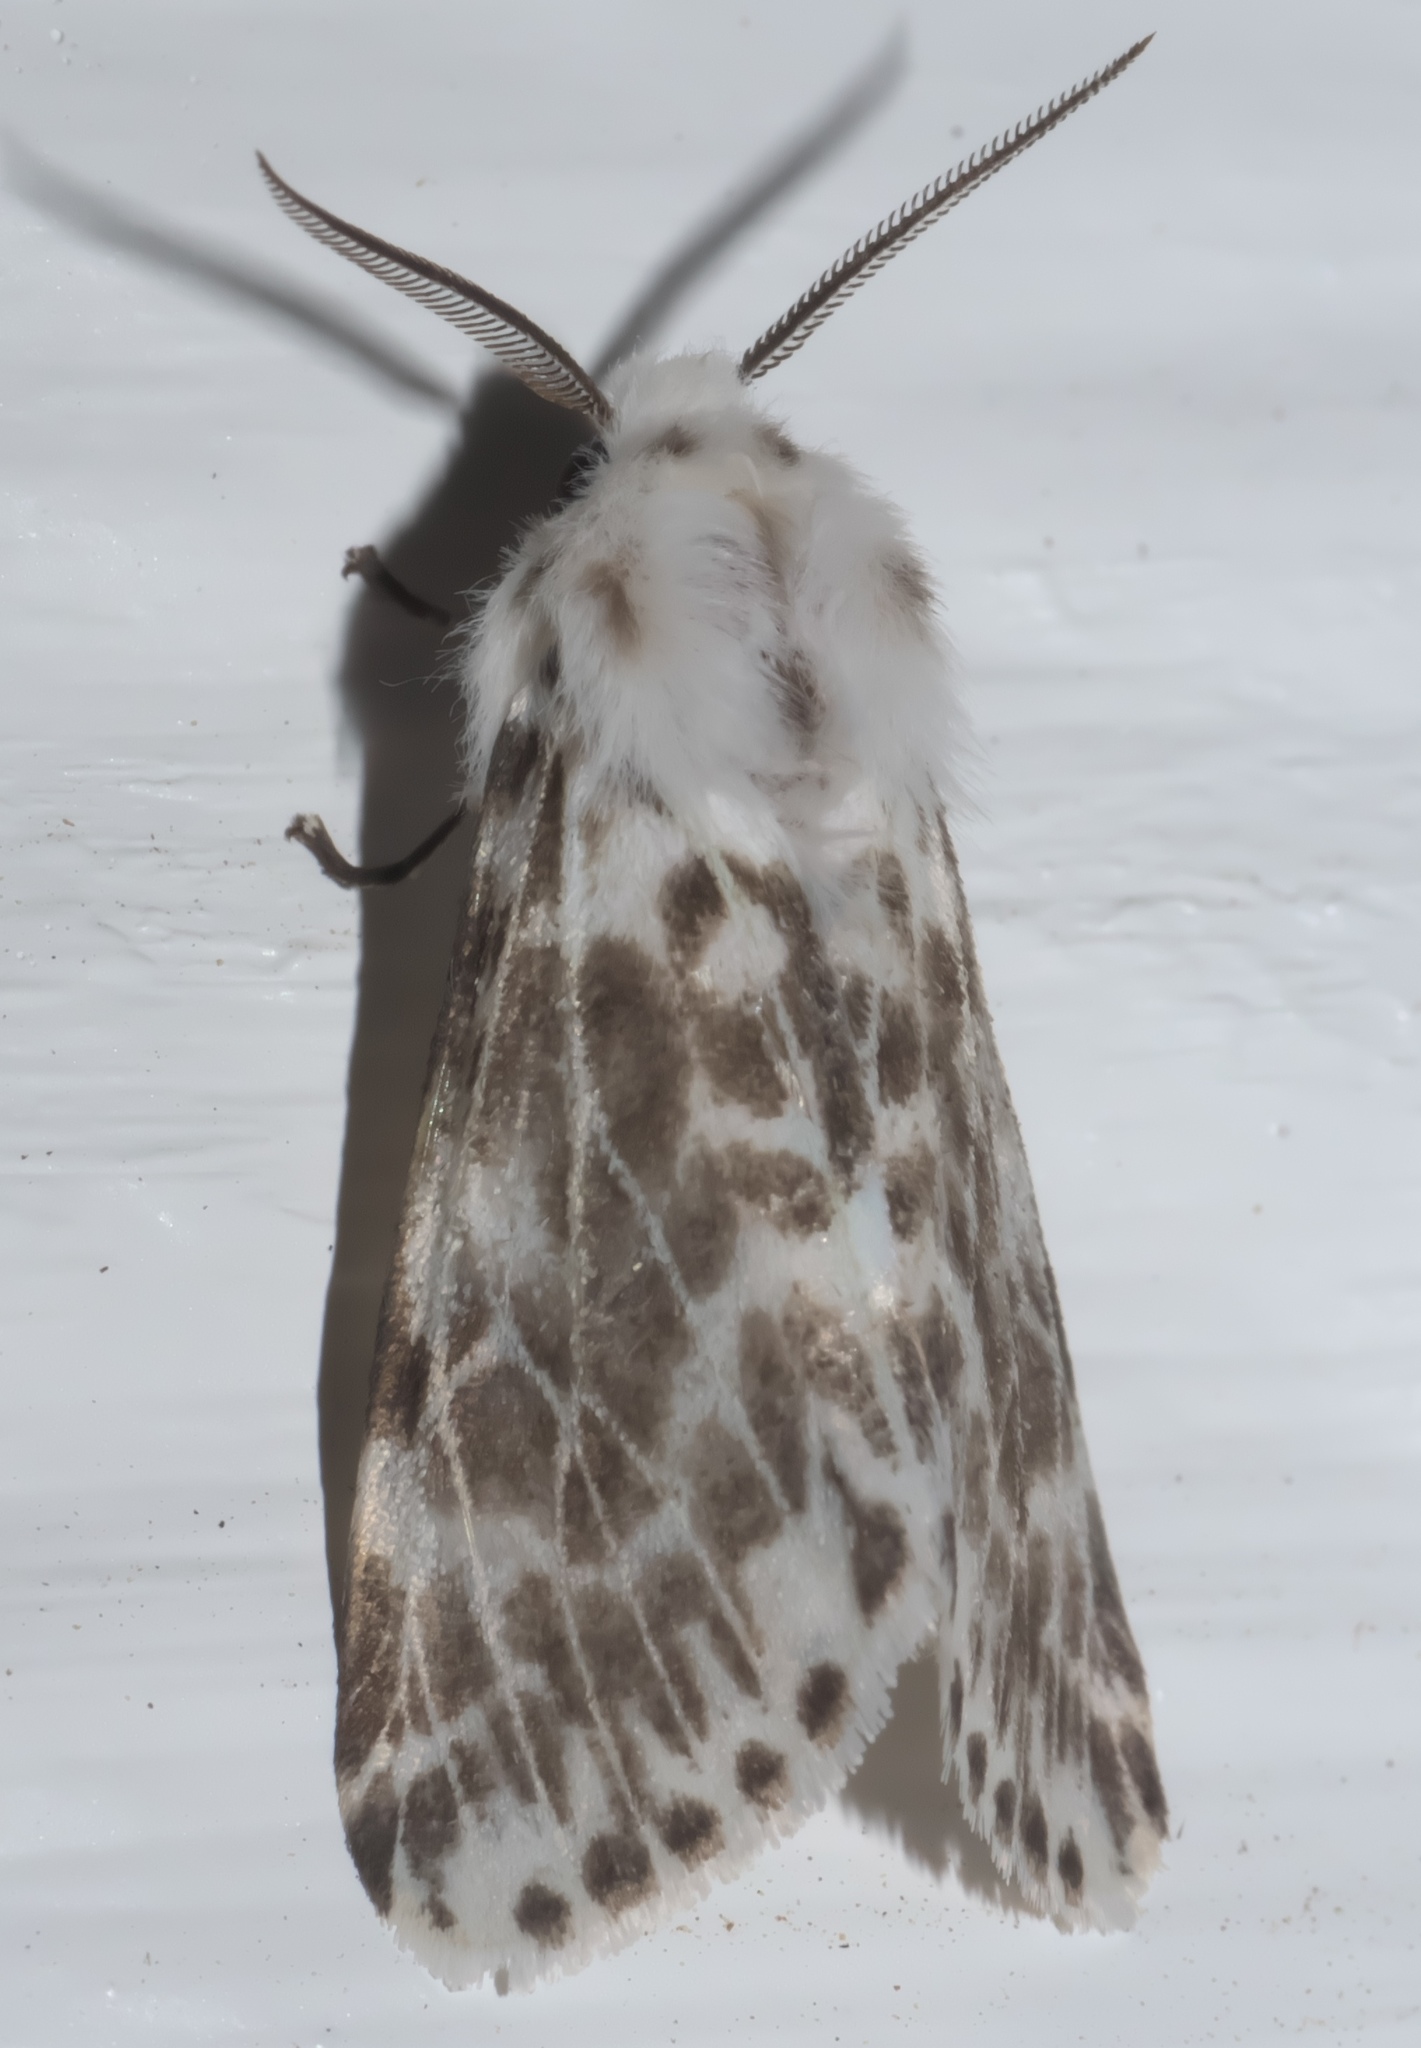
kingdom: Animalia
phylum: Arthropoda
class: Insecta
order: Lepidoptera
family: Erebidae
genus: Hyphantria
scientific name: Hyphantria cunea
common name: American white moth
